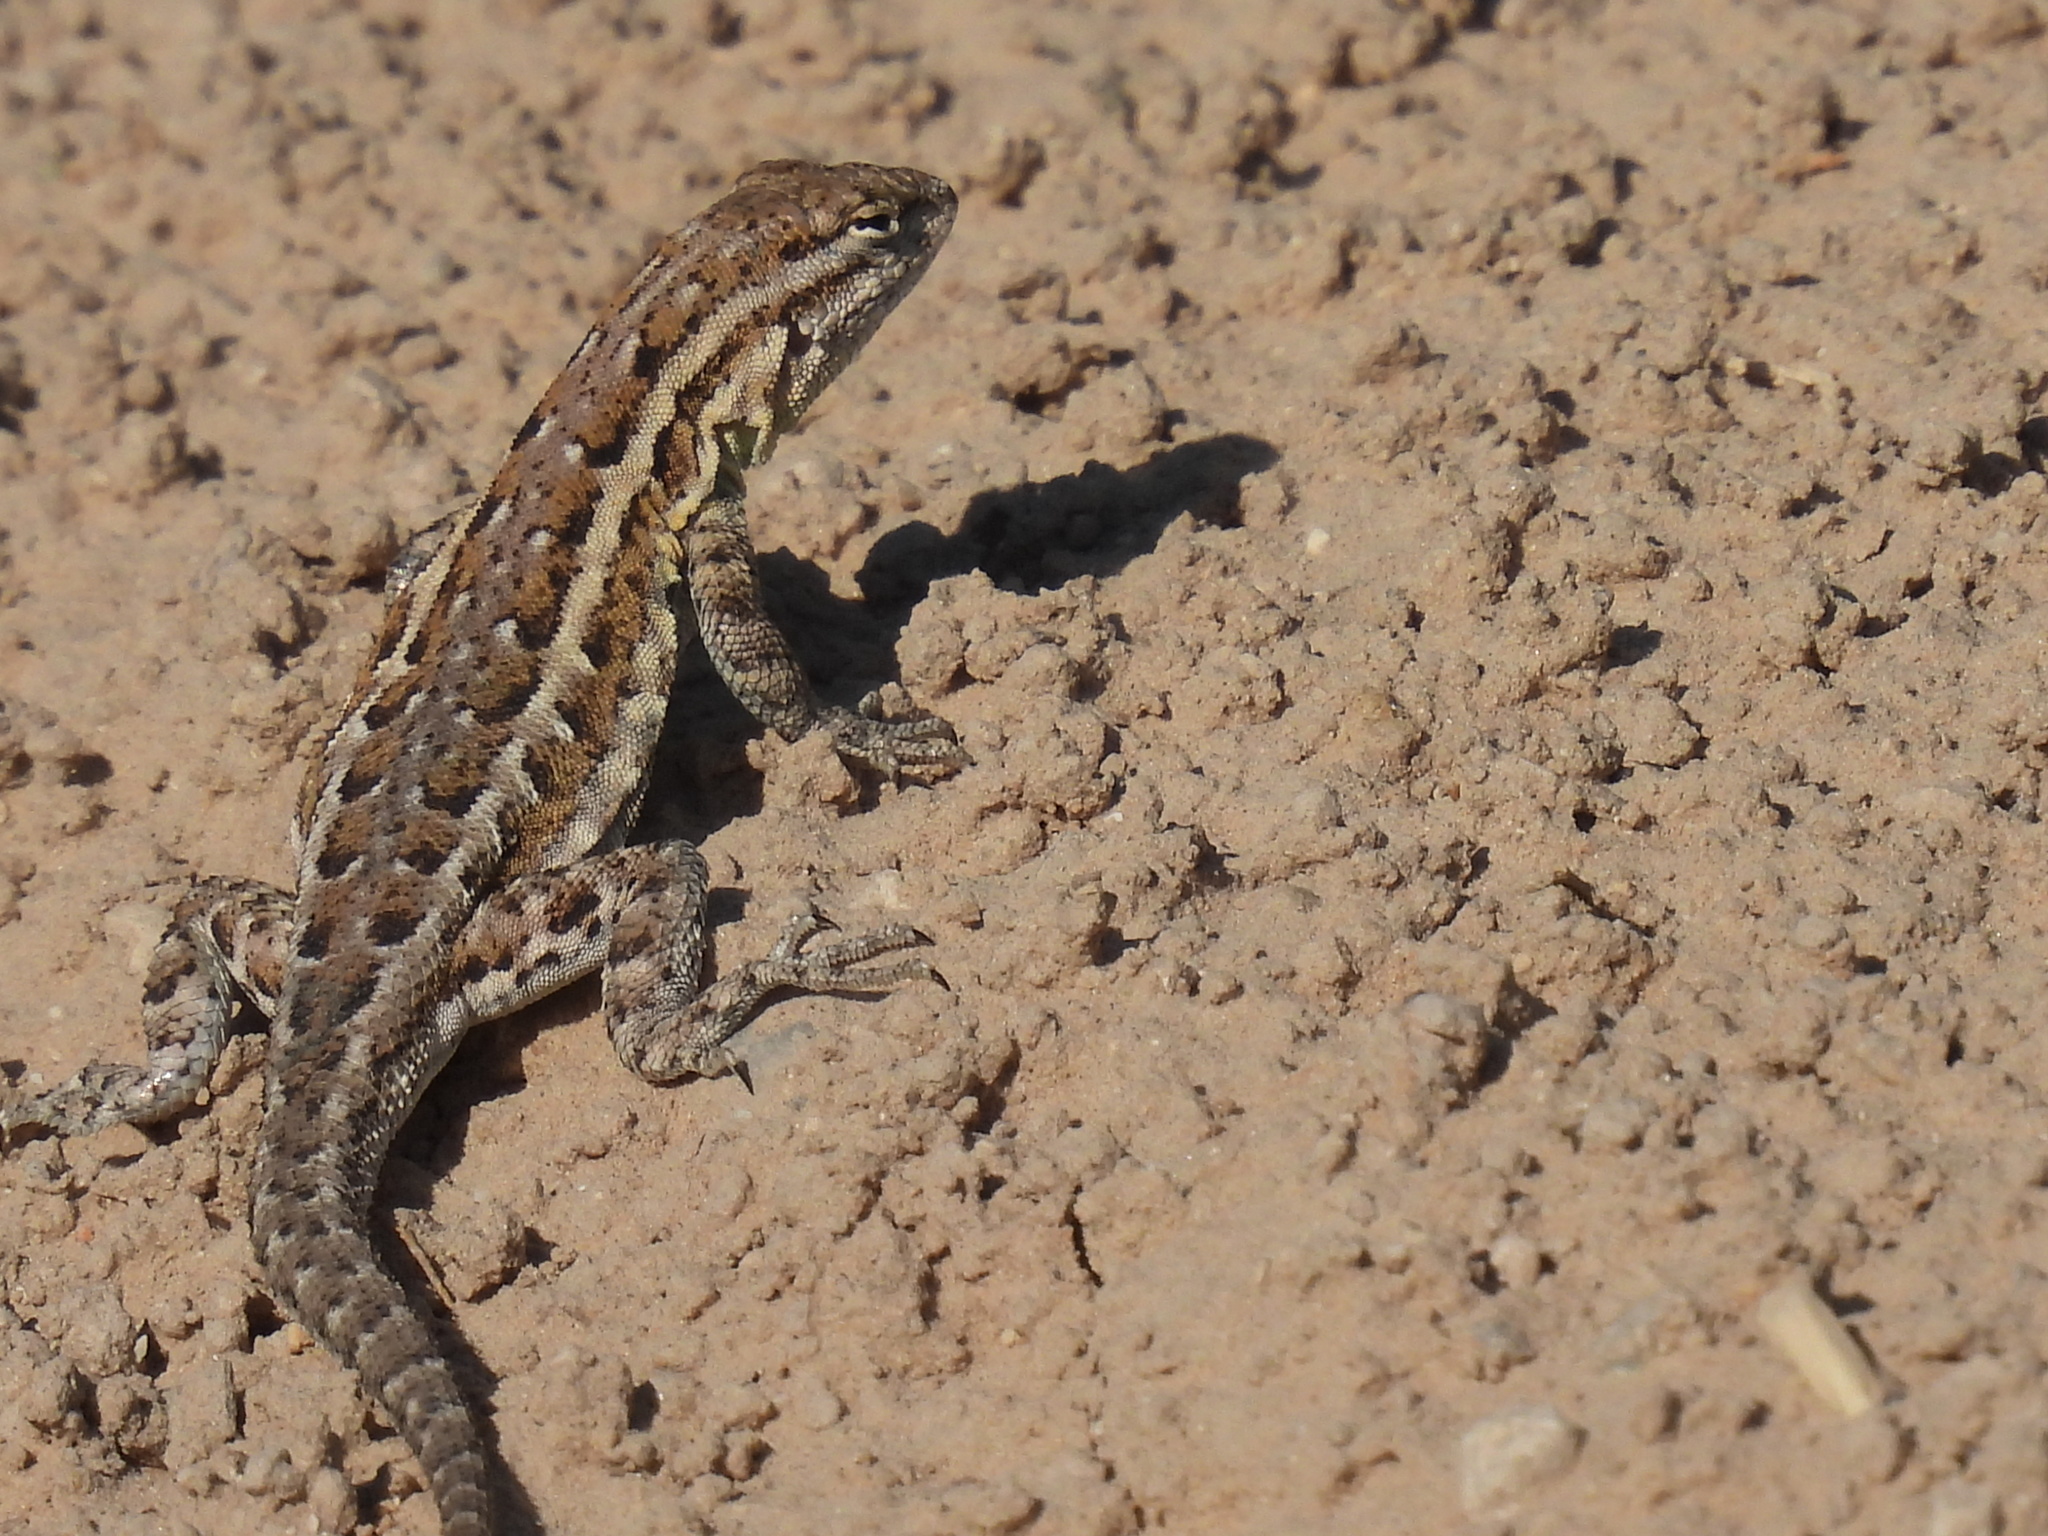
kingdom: Animalia
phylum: Chordata
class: Squamata
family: Phrynosomatidae
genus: Uta
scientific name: Uta stansburiana
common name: Side-blotched lizard
